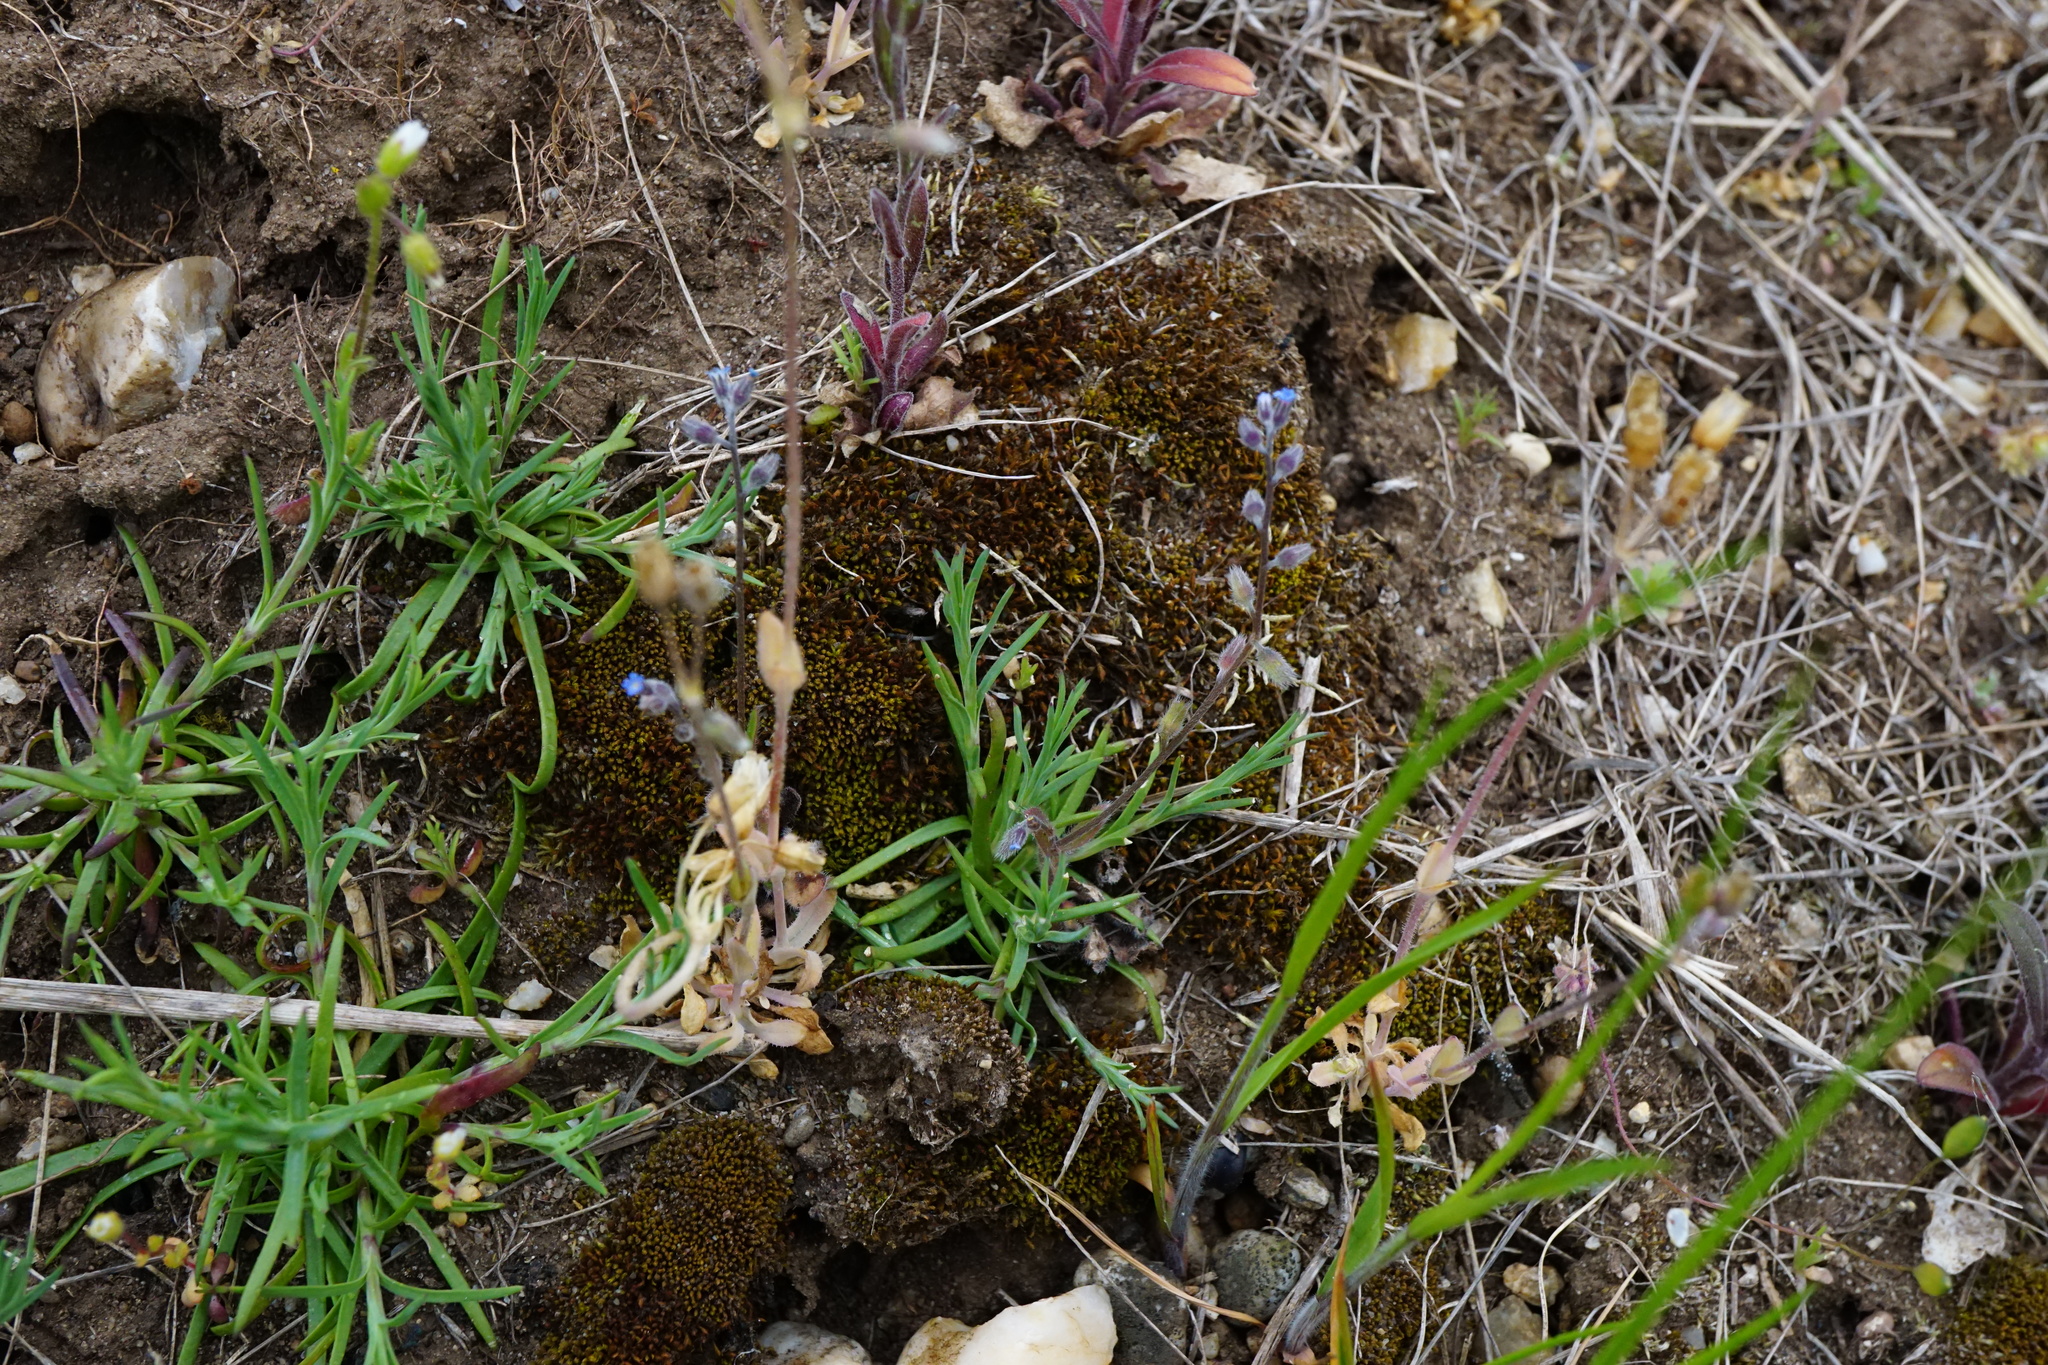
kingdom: Plantae
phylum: Tracheophyta
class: Magnoliopsida
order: Boraginales
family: Boraginaceae
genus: Myosotis
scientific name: Myosotis ramosissima
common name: Early forget-me-not
